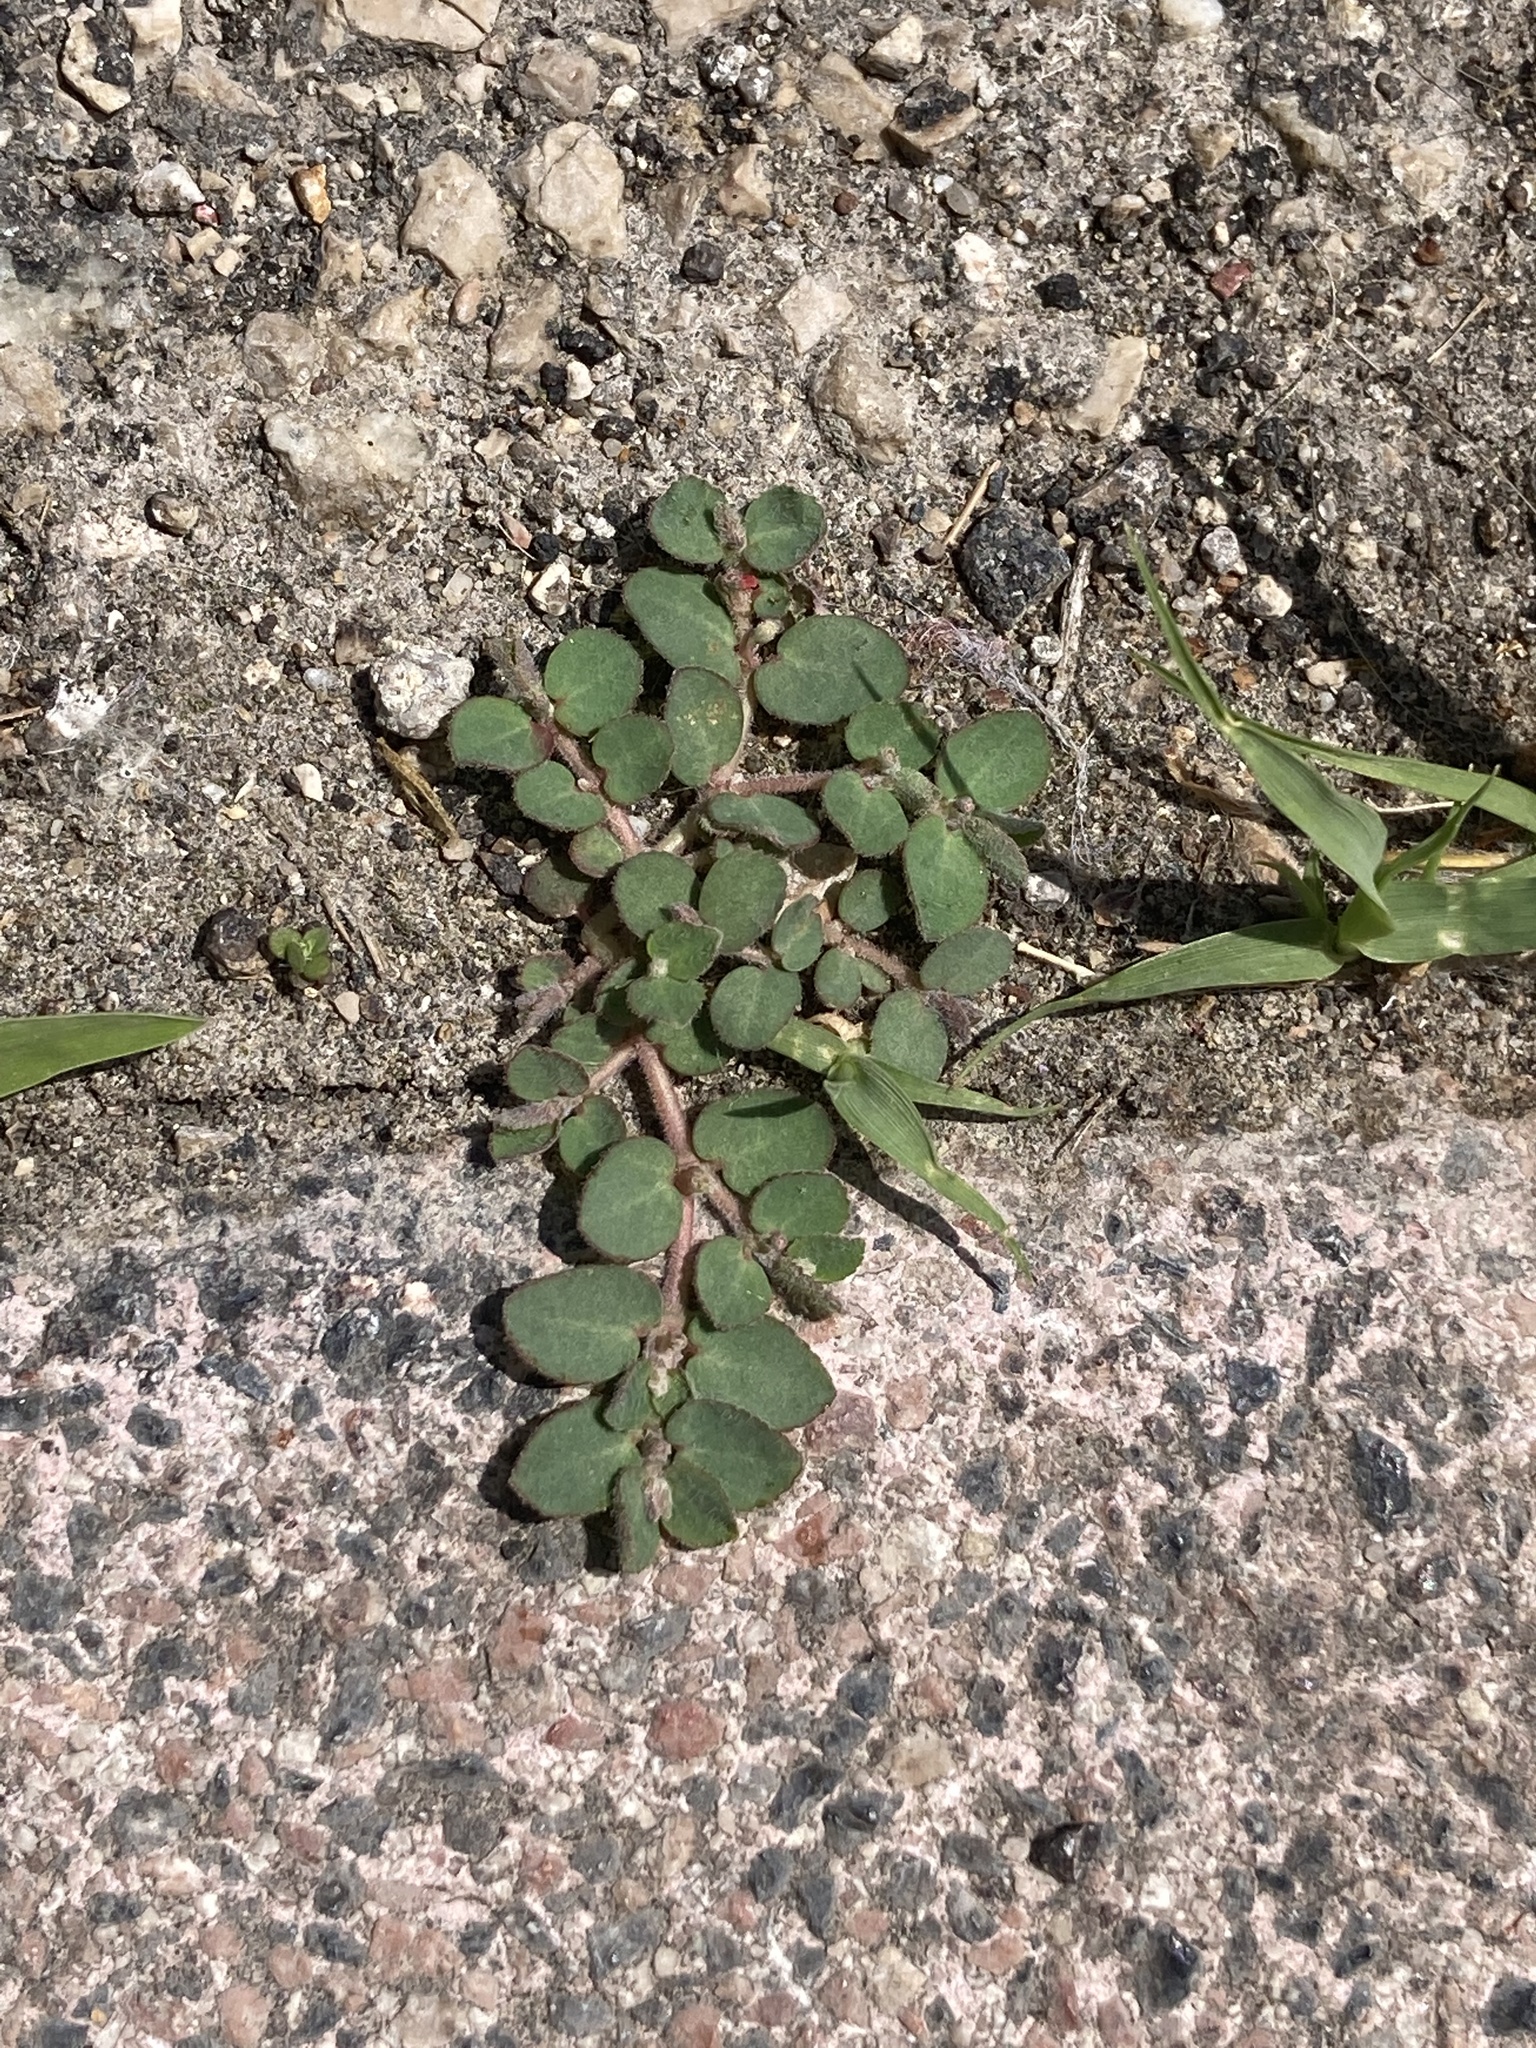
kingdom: Plantae
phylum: Tracheophyta
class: Magnoliopsida
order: Malpighiales
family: Euphorbiaceae
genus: Euphorbia
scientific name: Euphorbia prostrata
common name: Prostrate sandmat
